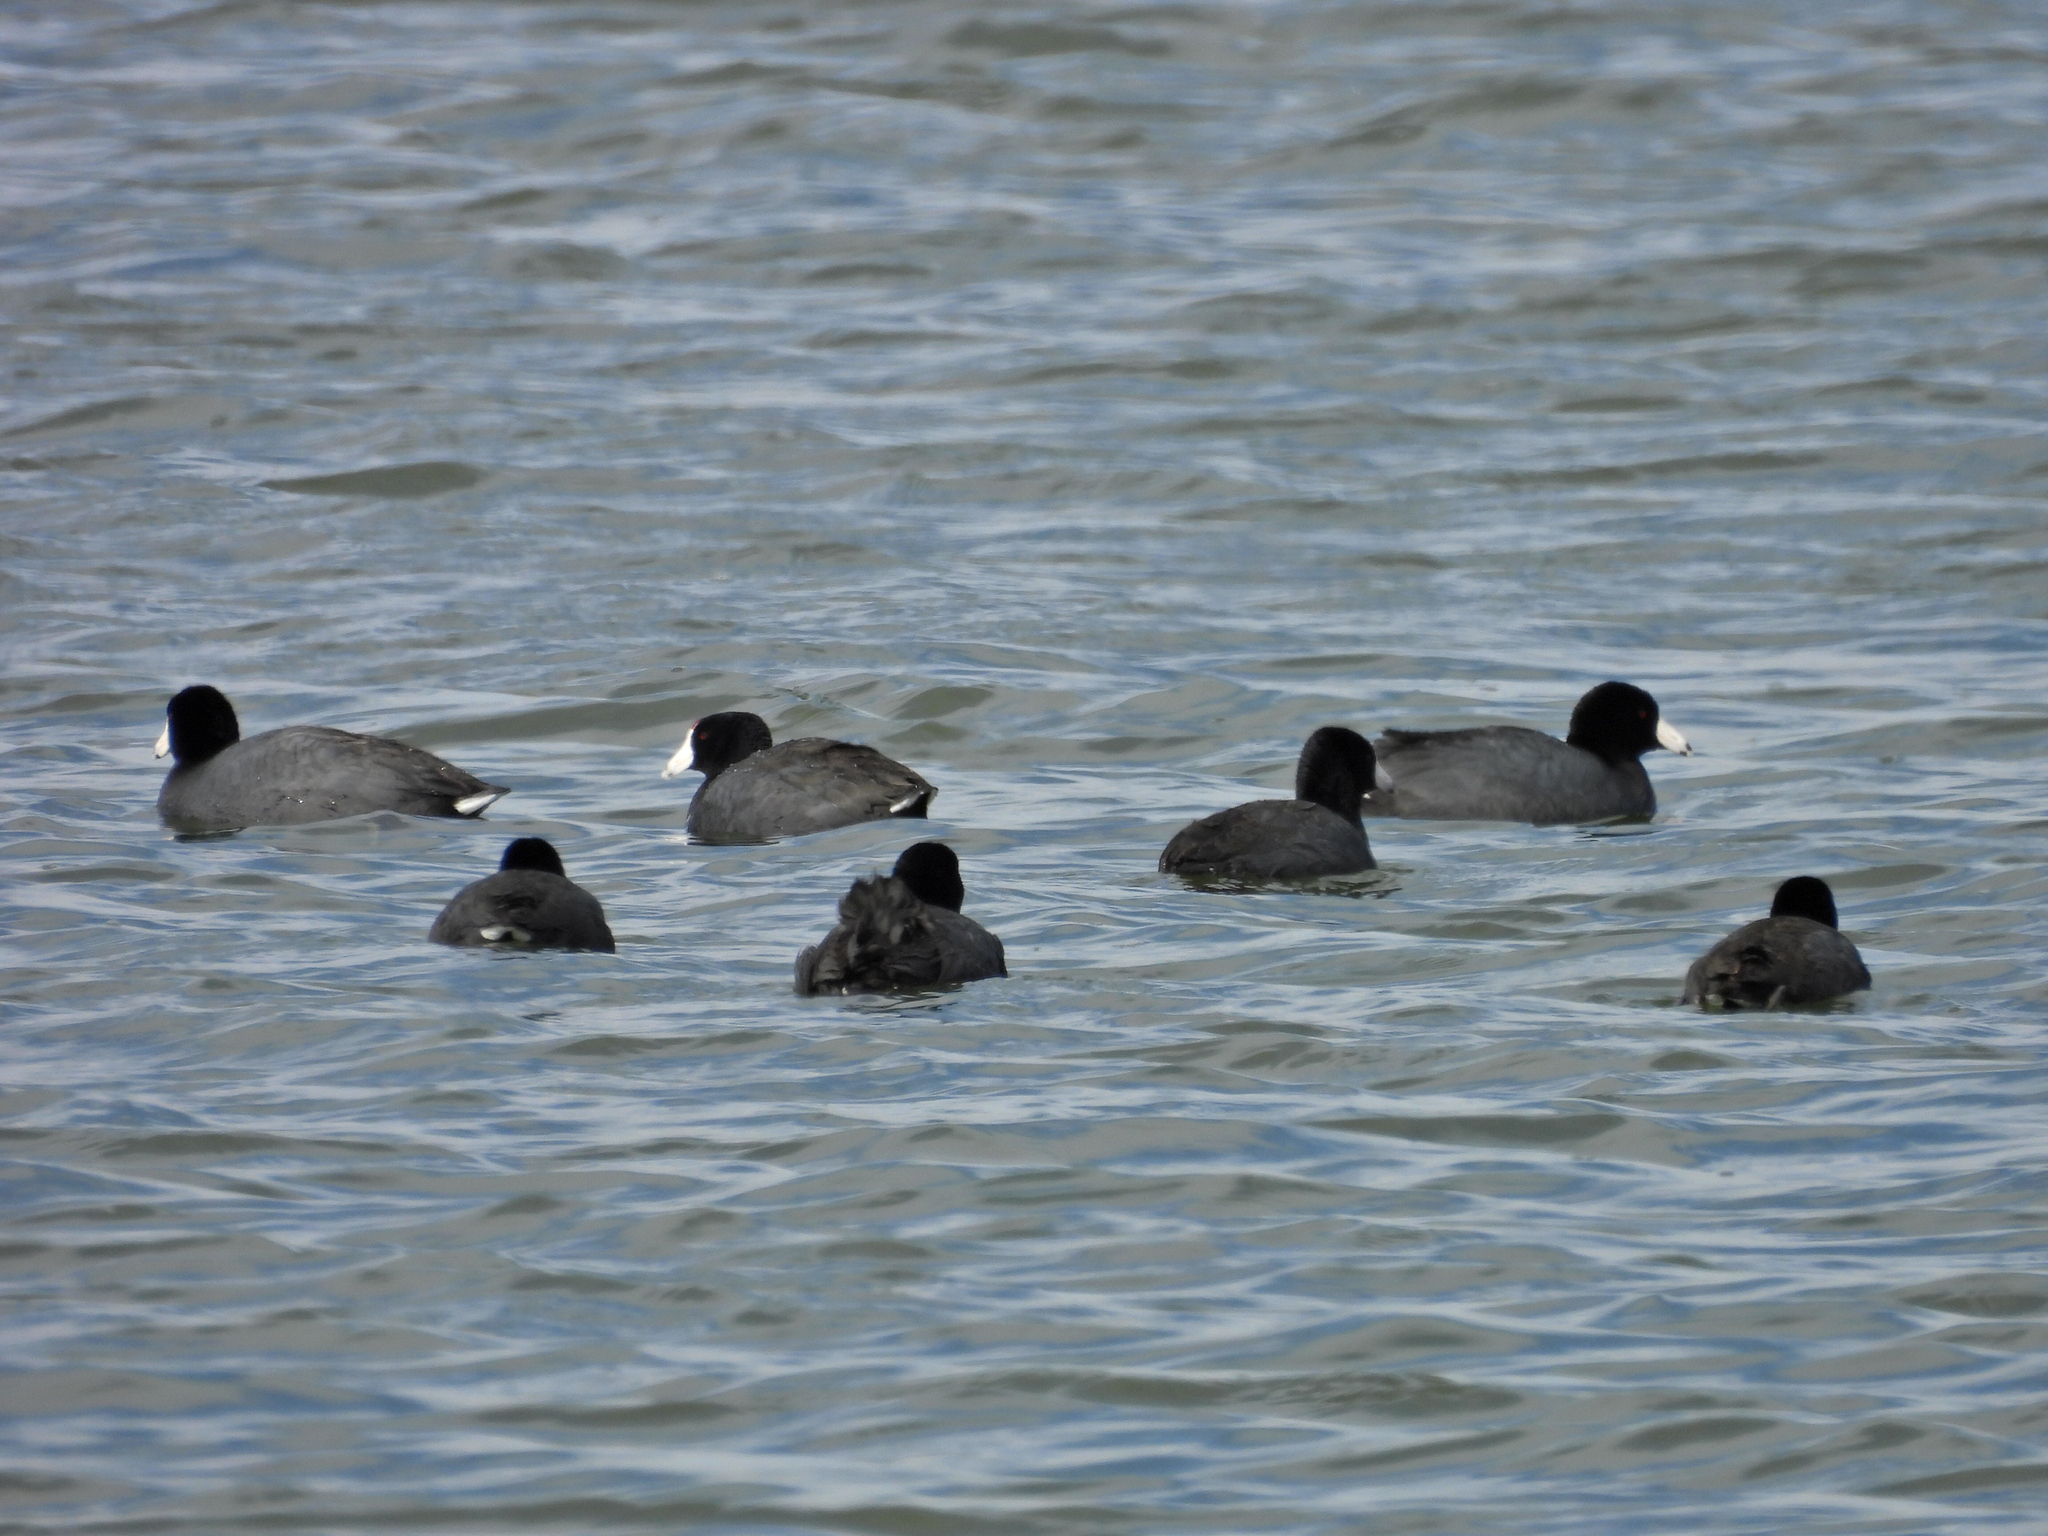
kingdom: Animalia
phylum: Chordata
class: Aves
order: Gruiformes
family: Rallidae
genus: Fulica
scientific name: Fulica americana
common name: American coot
